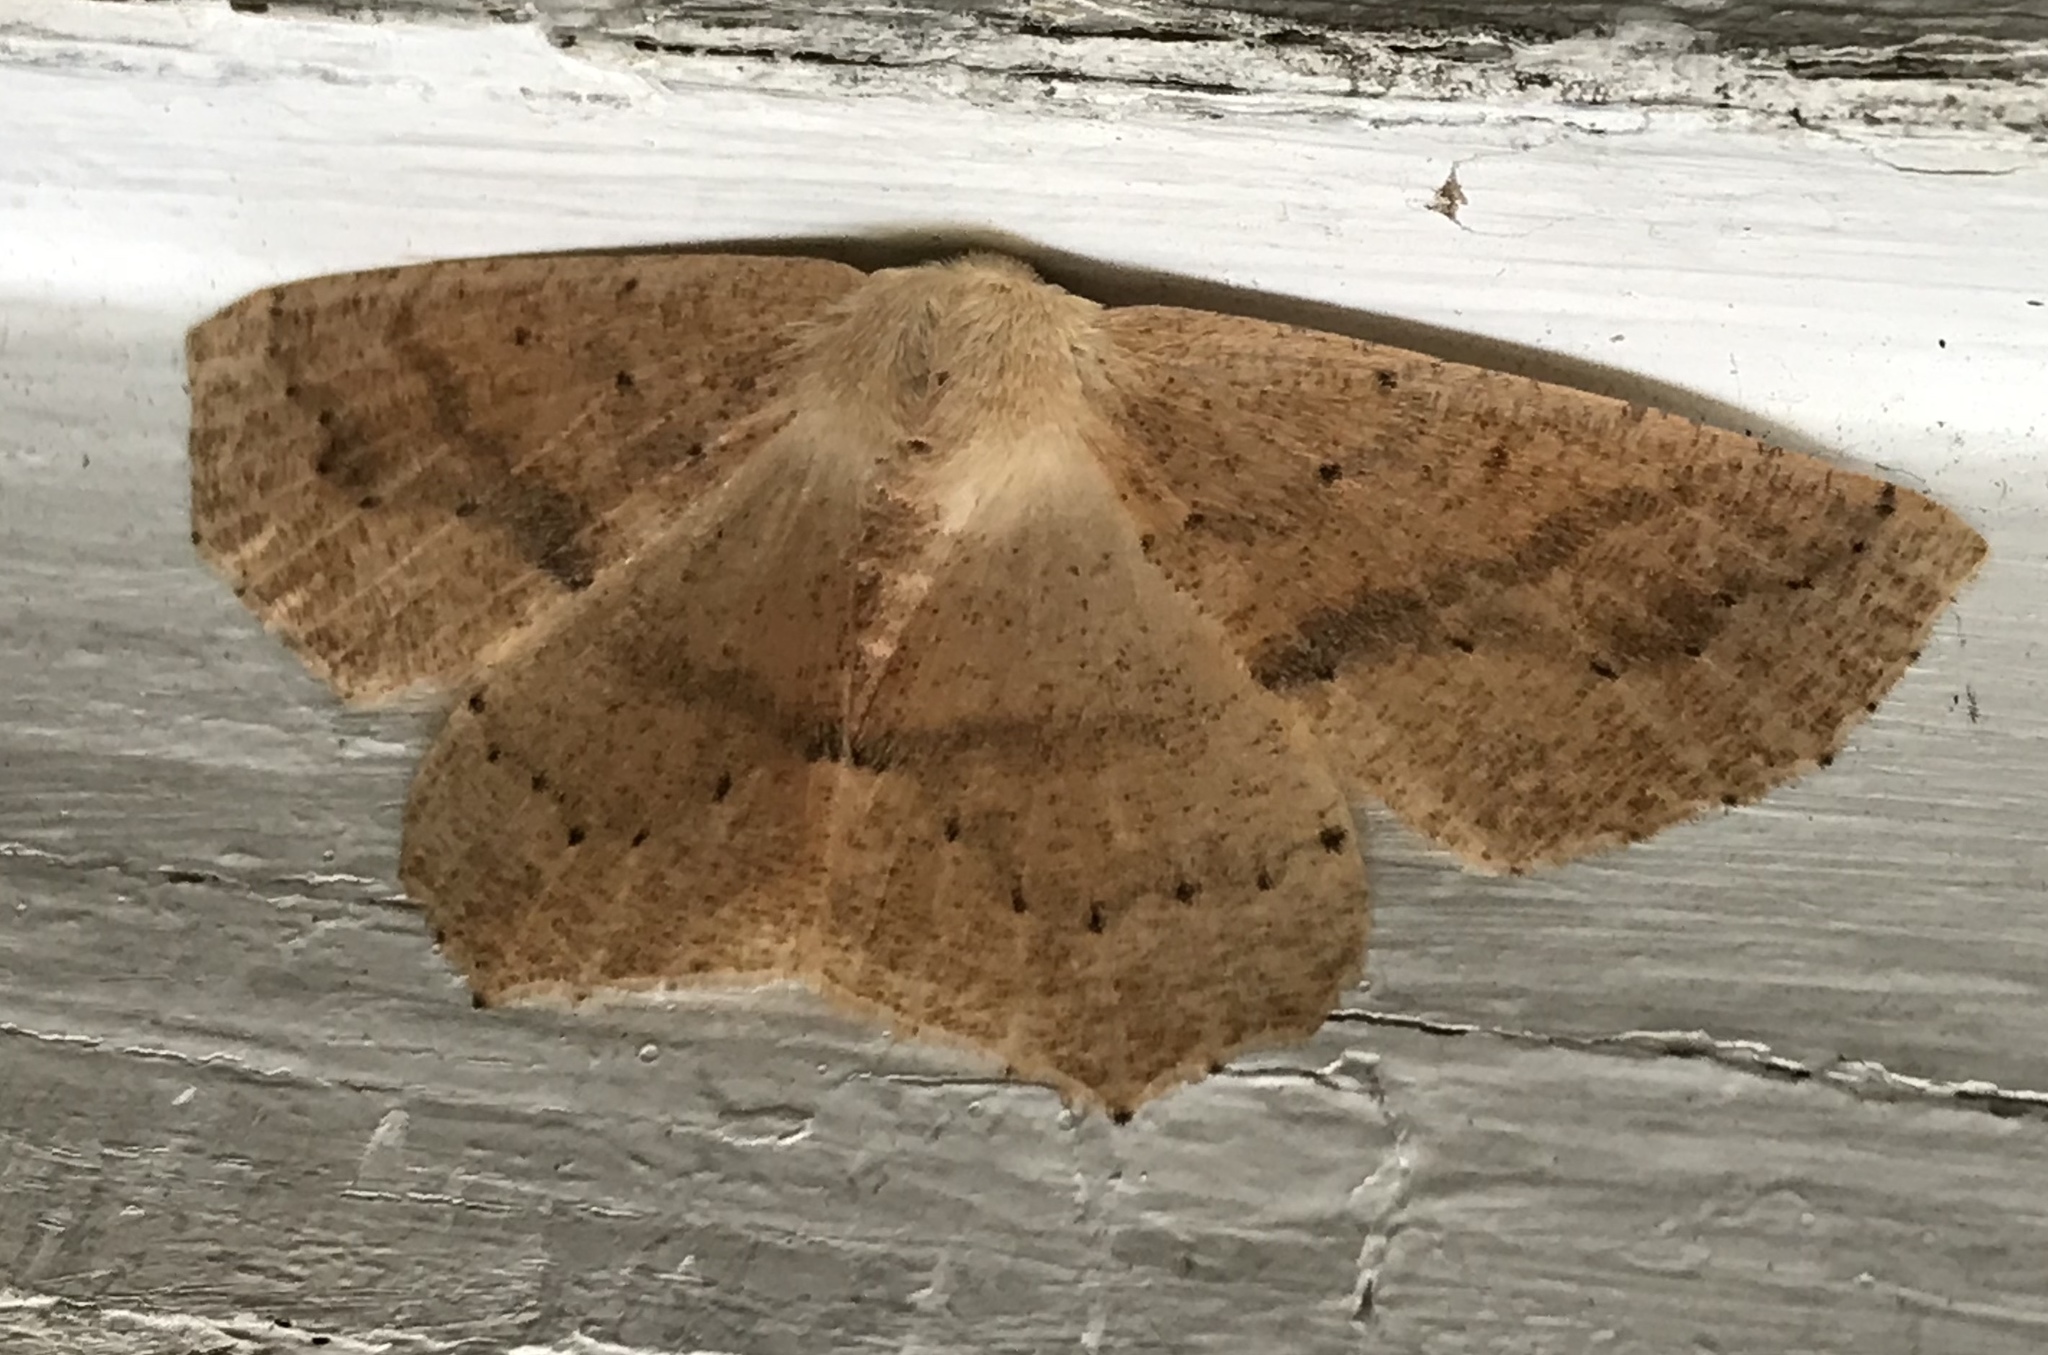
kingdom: Animalia
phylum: Arthropoda
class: Insecta
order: Lepidoptera
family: Geometridae
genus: Sabulodes
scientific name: Sabulodes aegrotata
